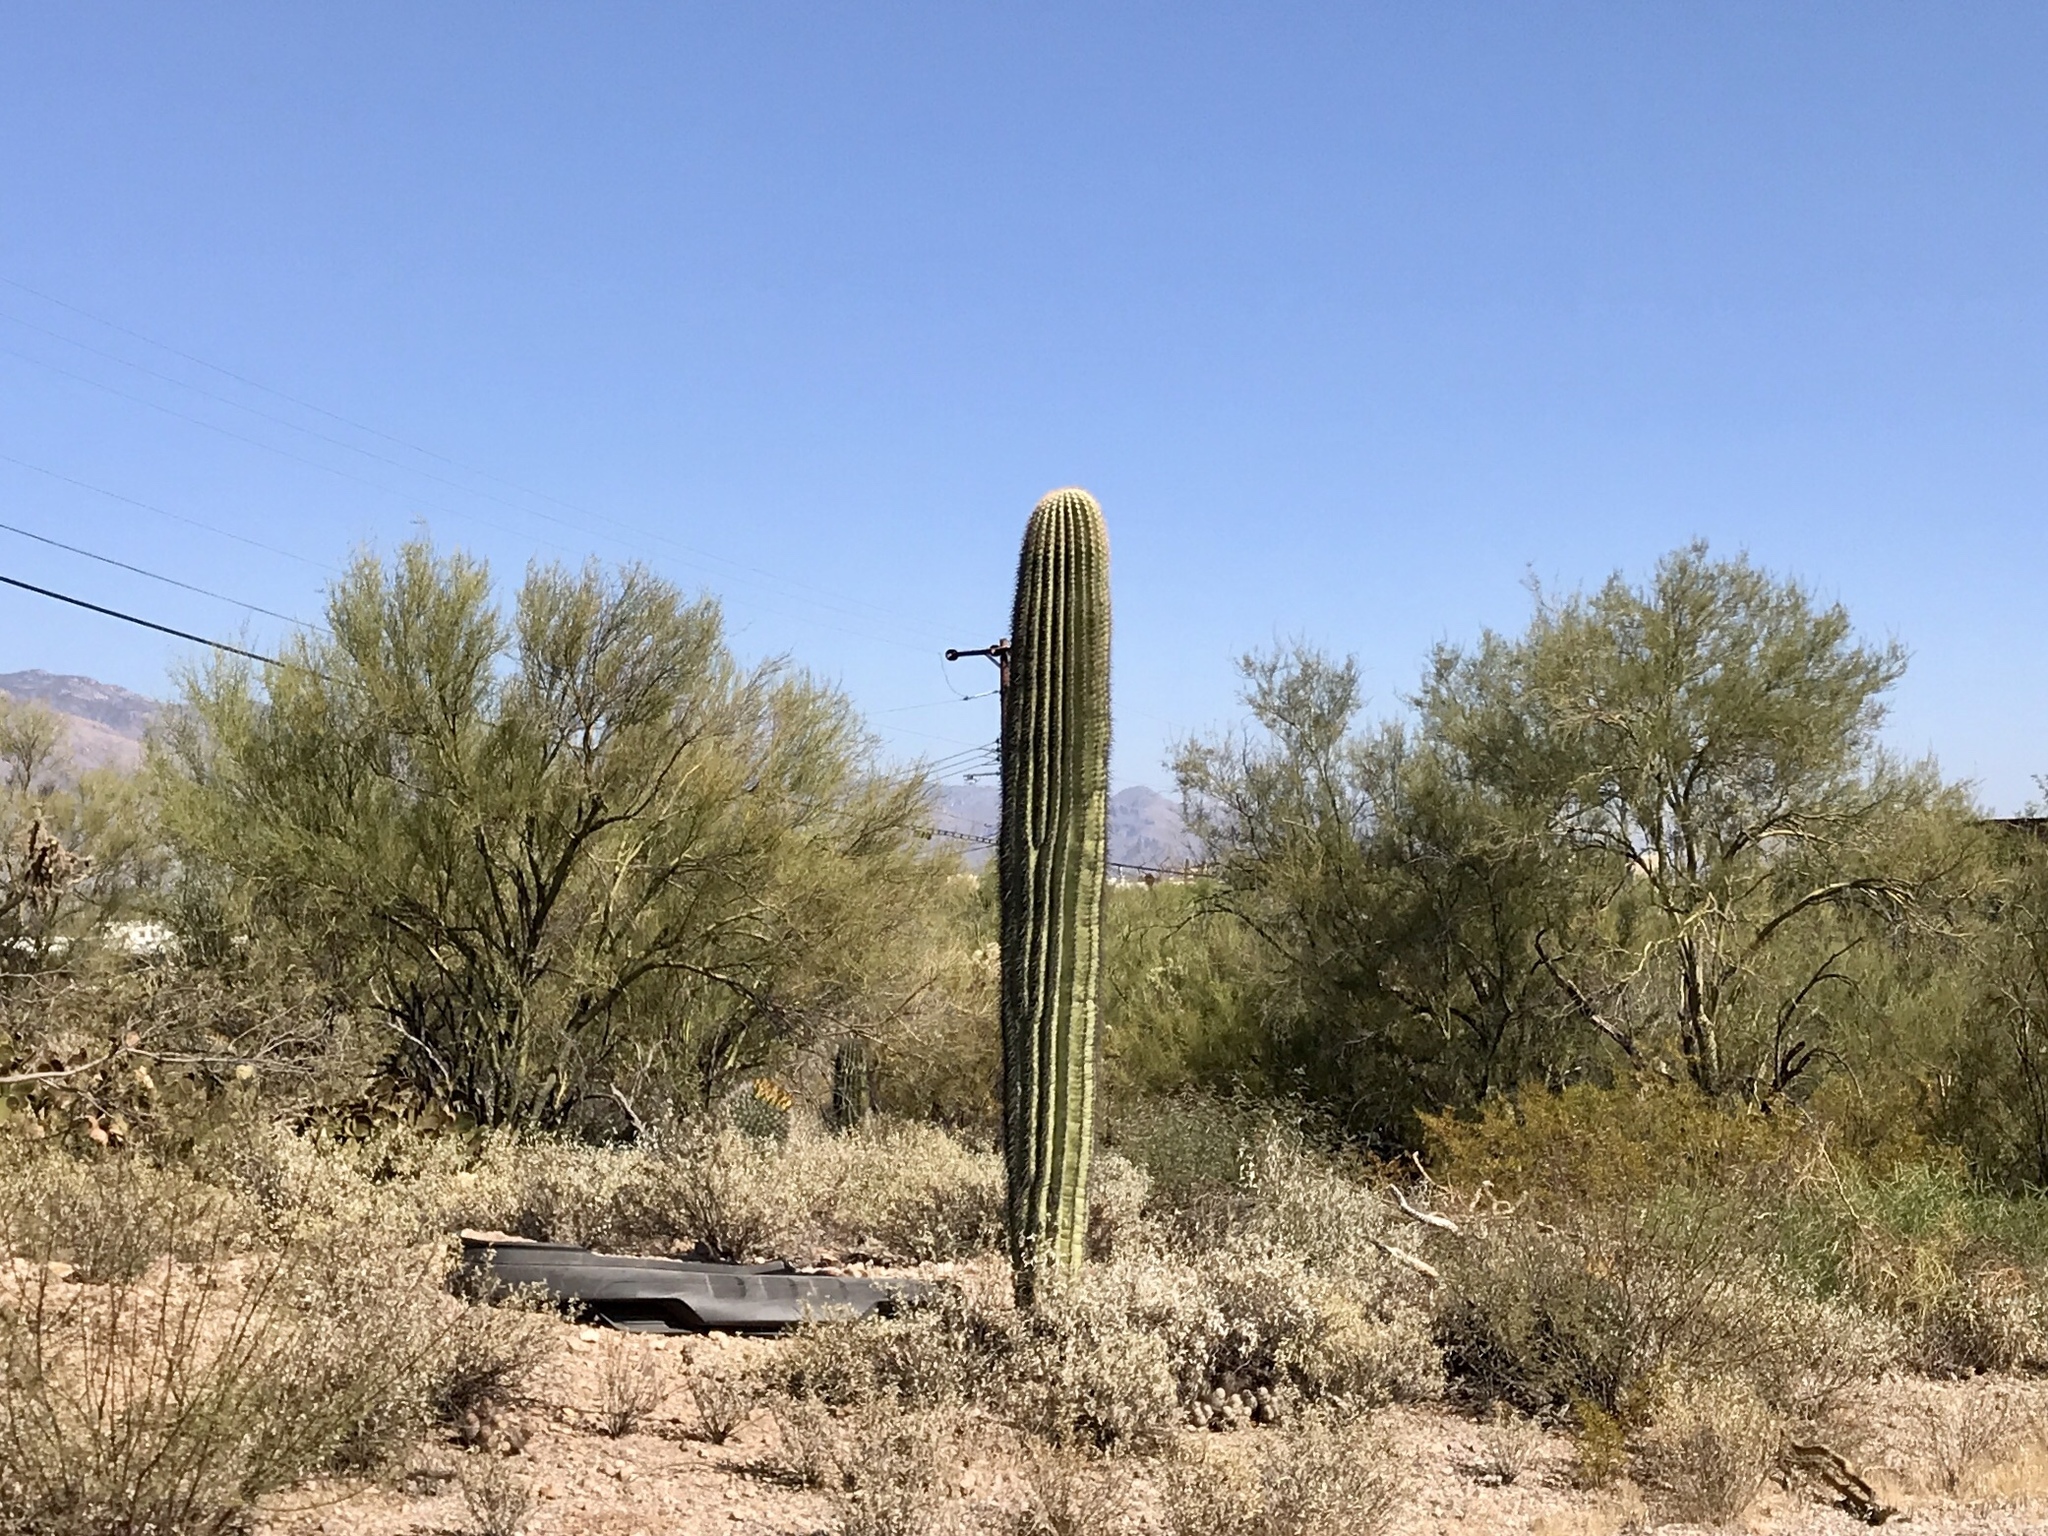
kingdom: Plantae
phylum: Tracheophyta
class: Magnoliopsida
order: Caryophyllales
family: Cactaceae
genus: Carnegiea
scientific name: Carnegiea gigantea
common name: Saguaro
